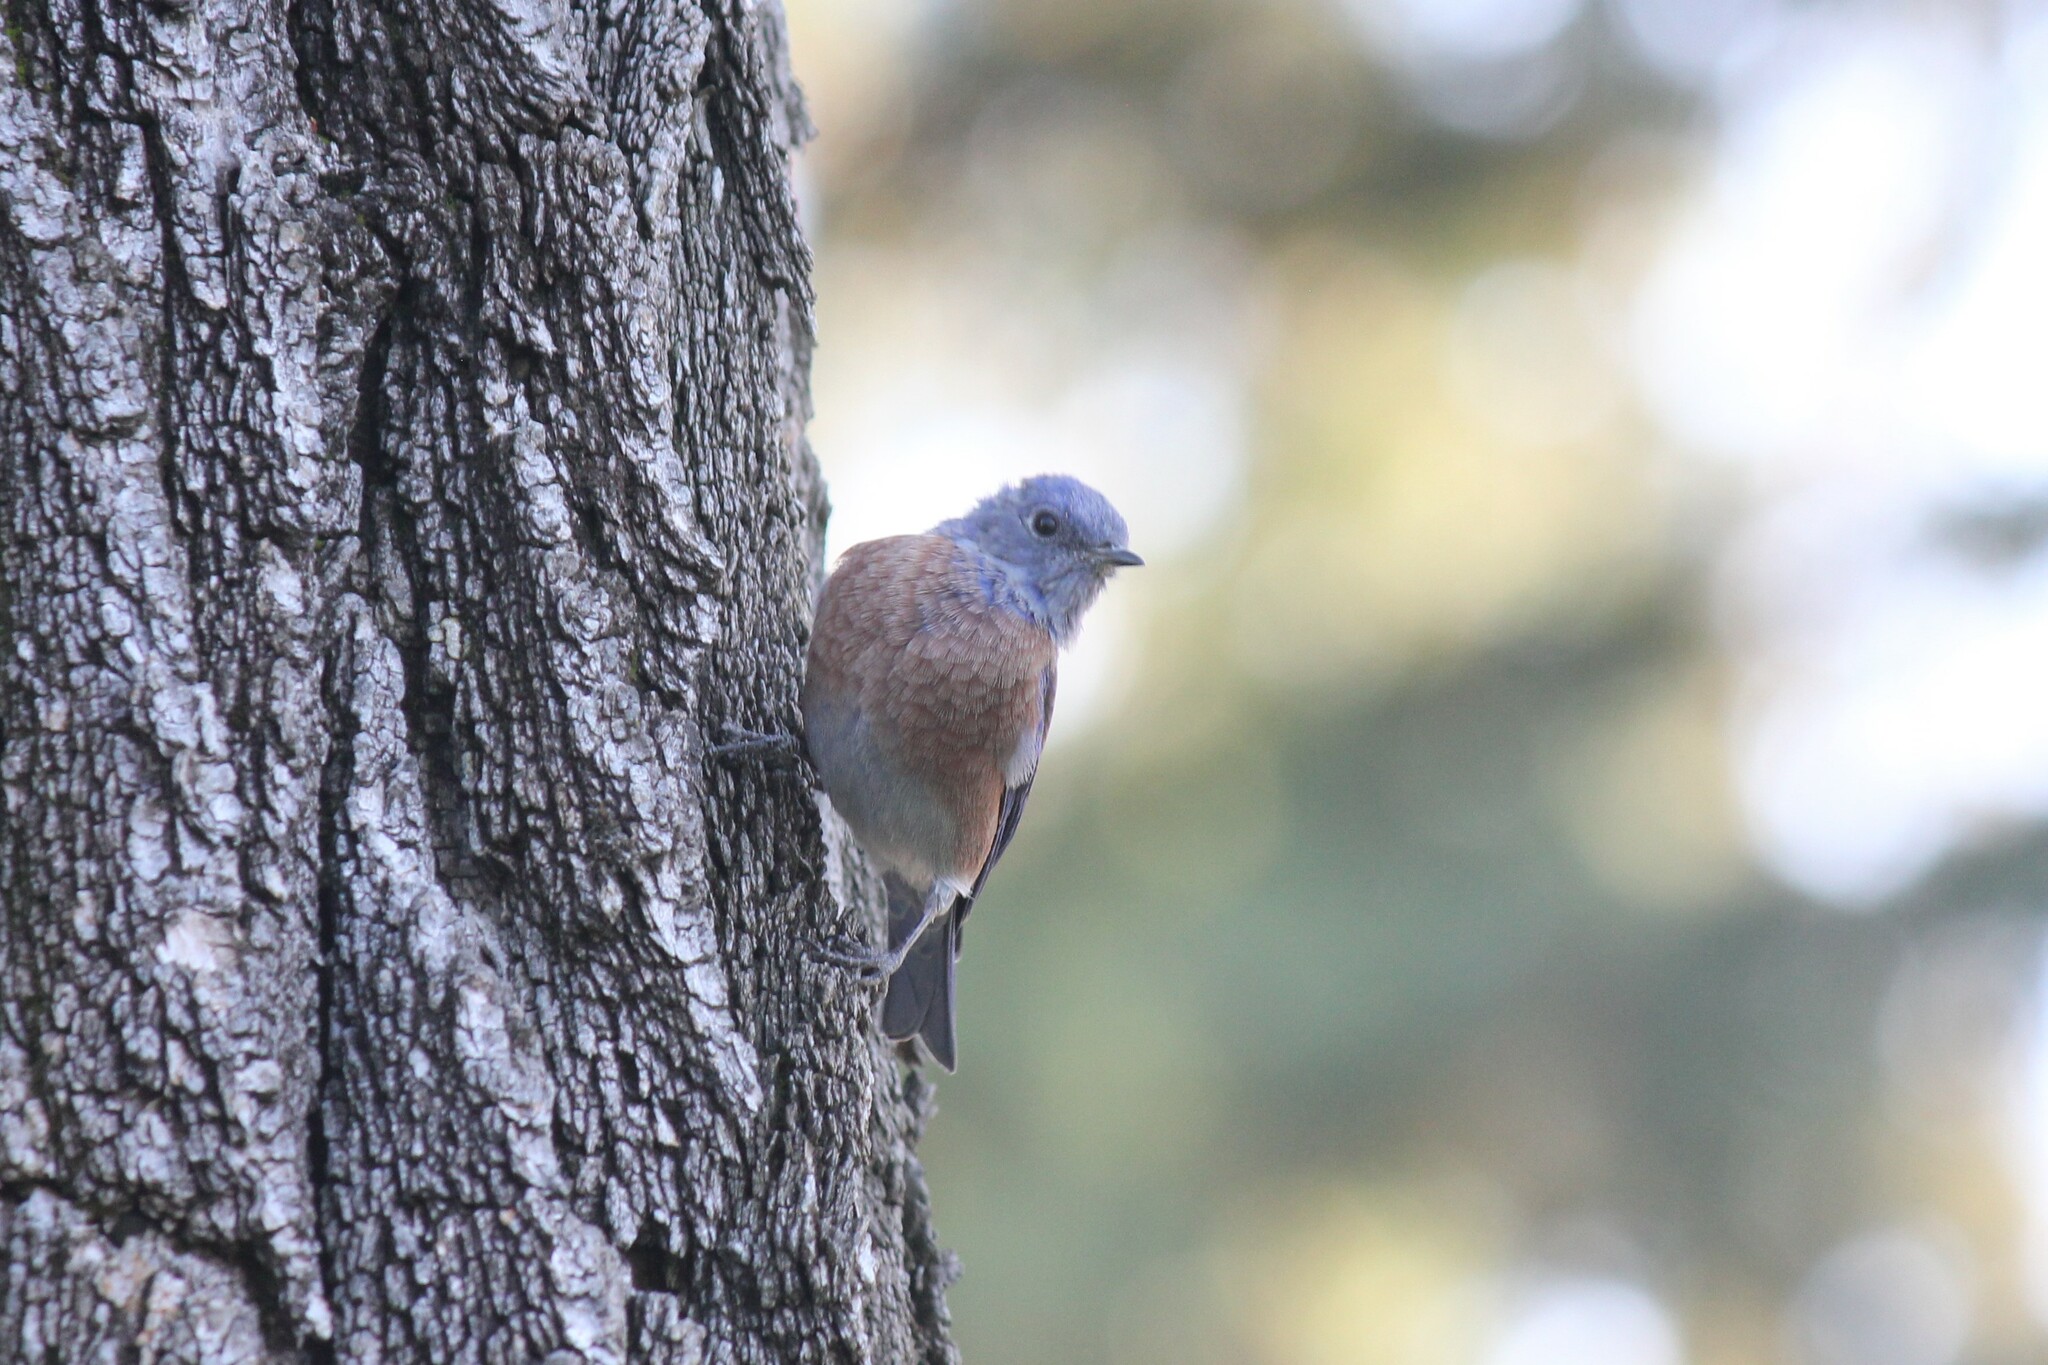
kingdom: Animalia
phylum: Chordata
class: Aves
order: Passeriformes
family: Turdidae
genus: Sialia
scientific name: Sialia mexicana
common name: Western bluebird
